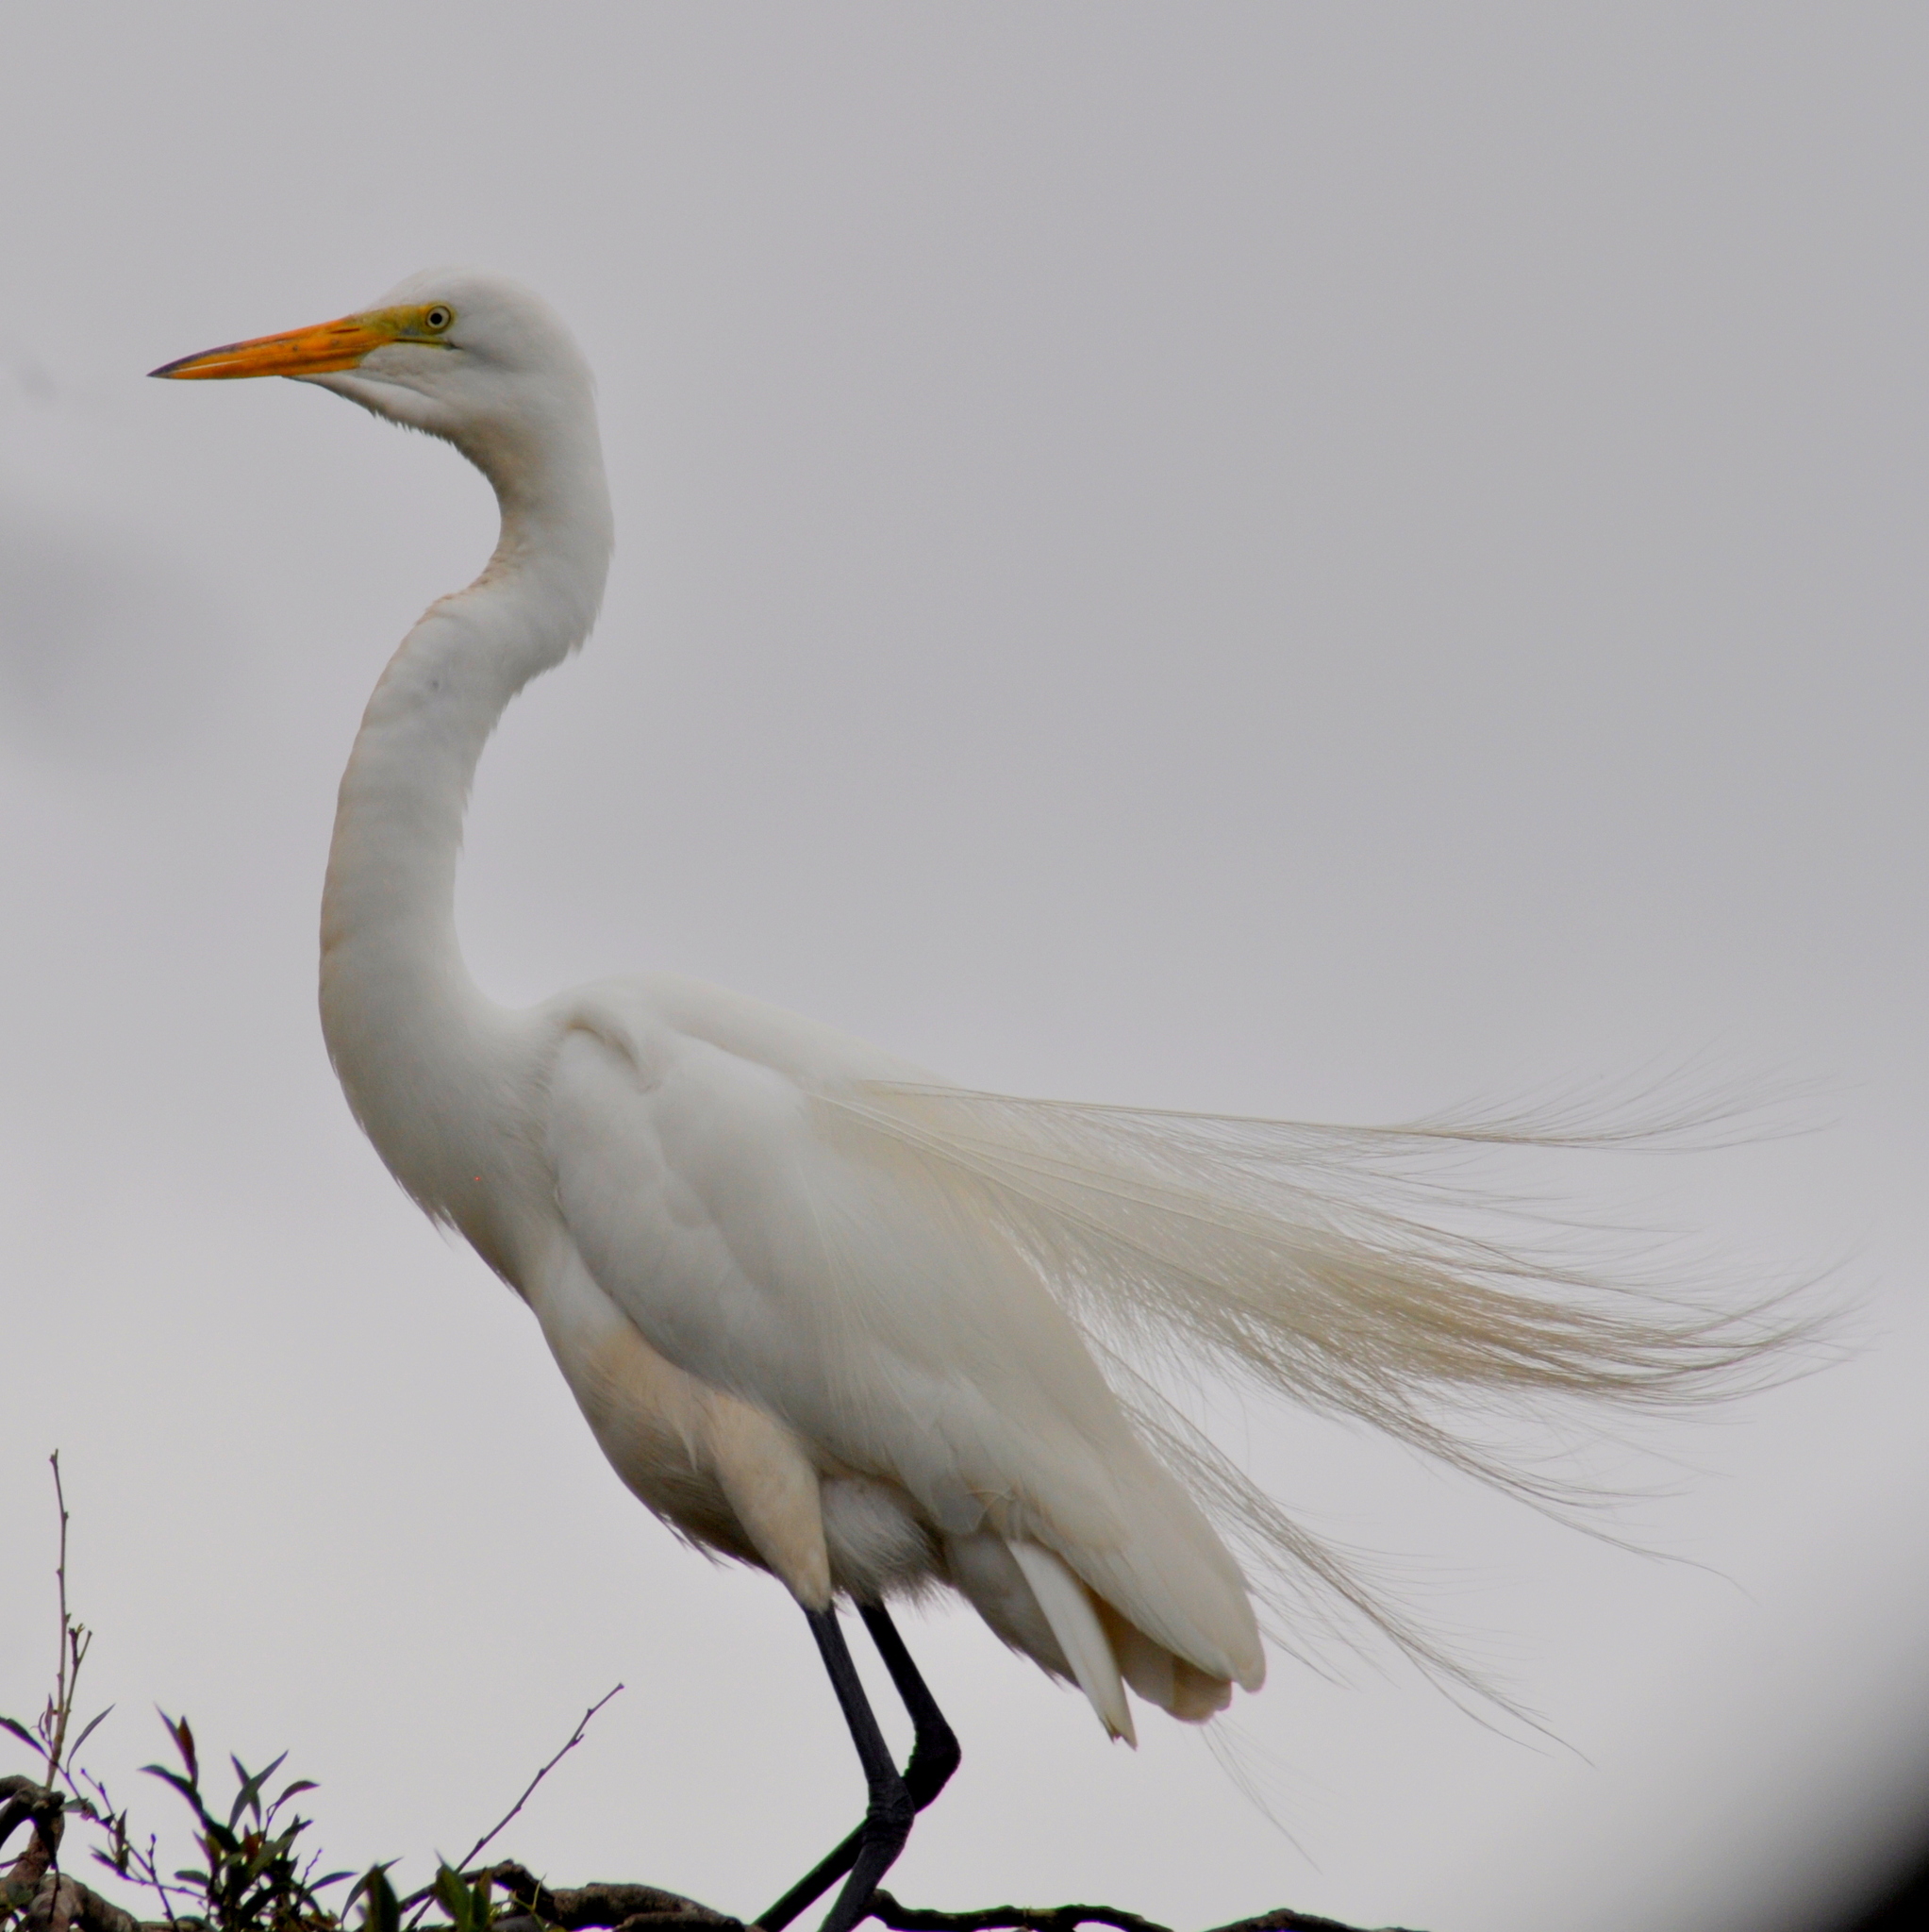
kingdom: Animalia
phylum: Chordata
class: Aves
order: Pelecaniformes
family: Ardeidae
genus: Ardea
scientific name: Ardea alba
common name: Great egret
